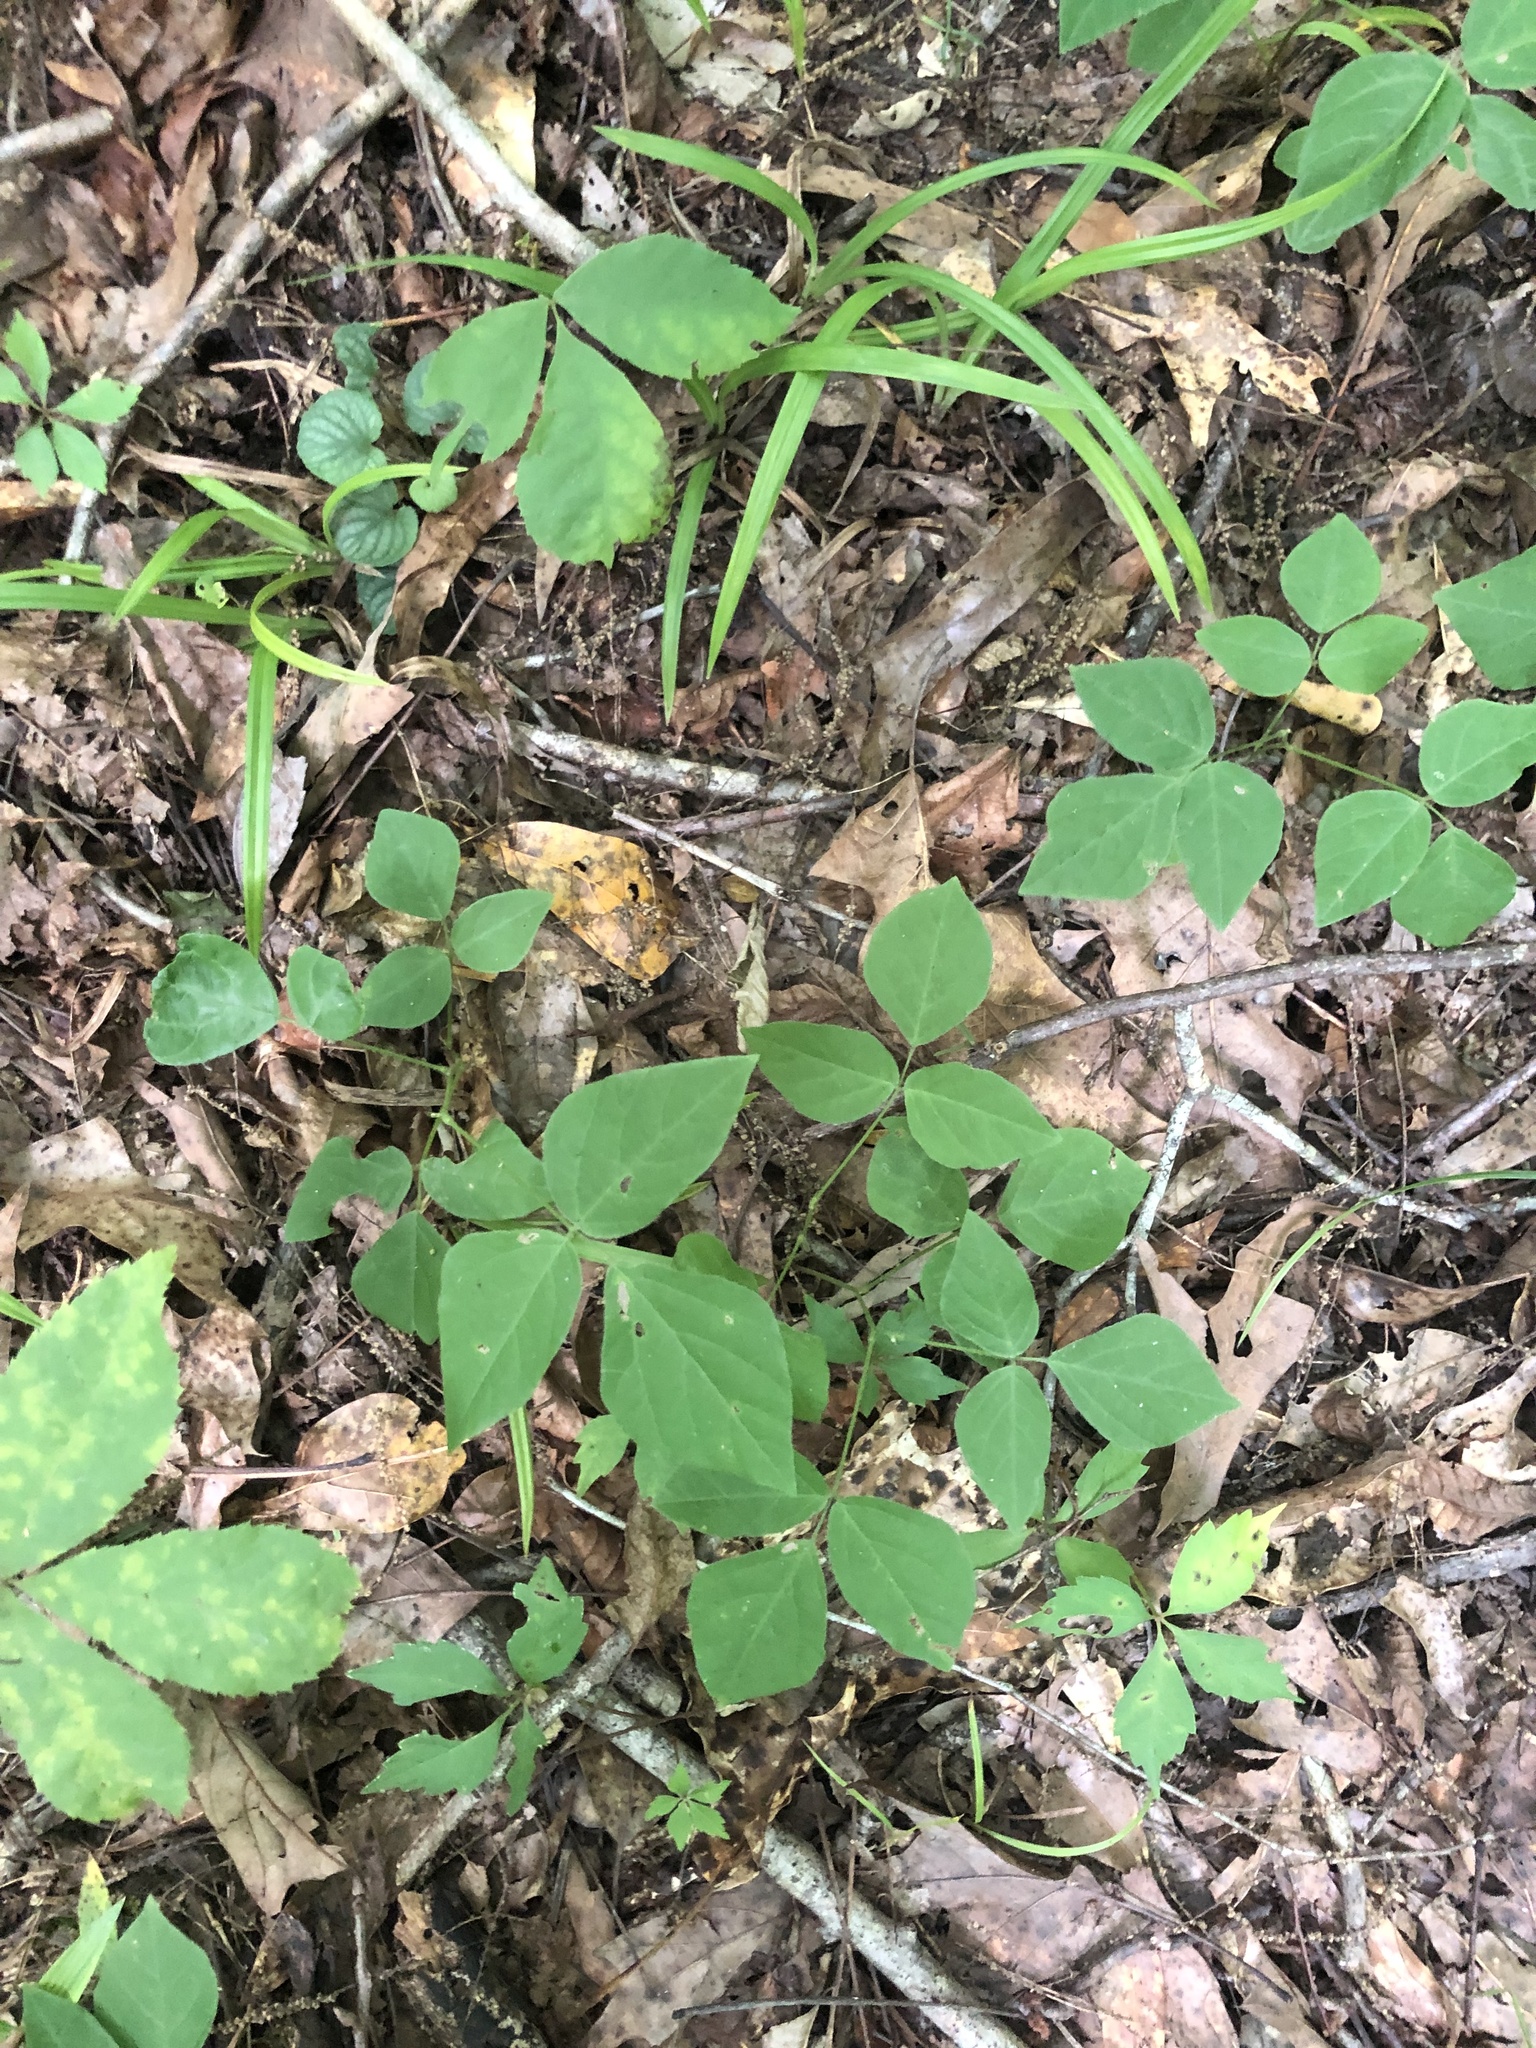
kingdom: Plantae
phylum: Tracheophyta
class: Magnoliopsida
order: Fabales
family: Fabaceae
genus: Amphicarpaea
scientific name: Amphicarpaea bracteata
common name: American hog peanut
